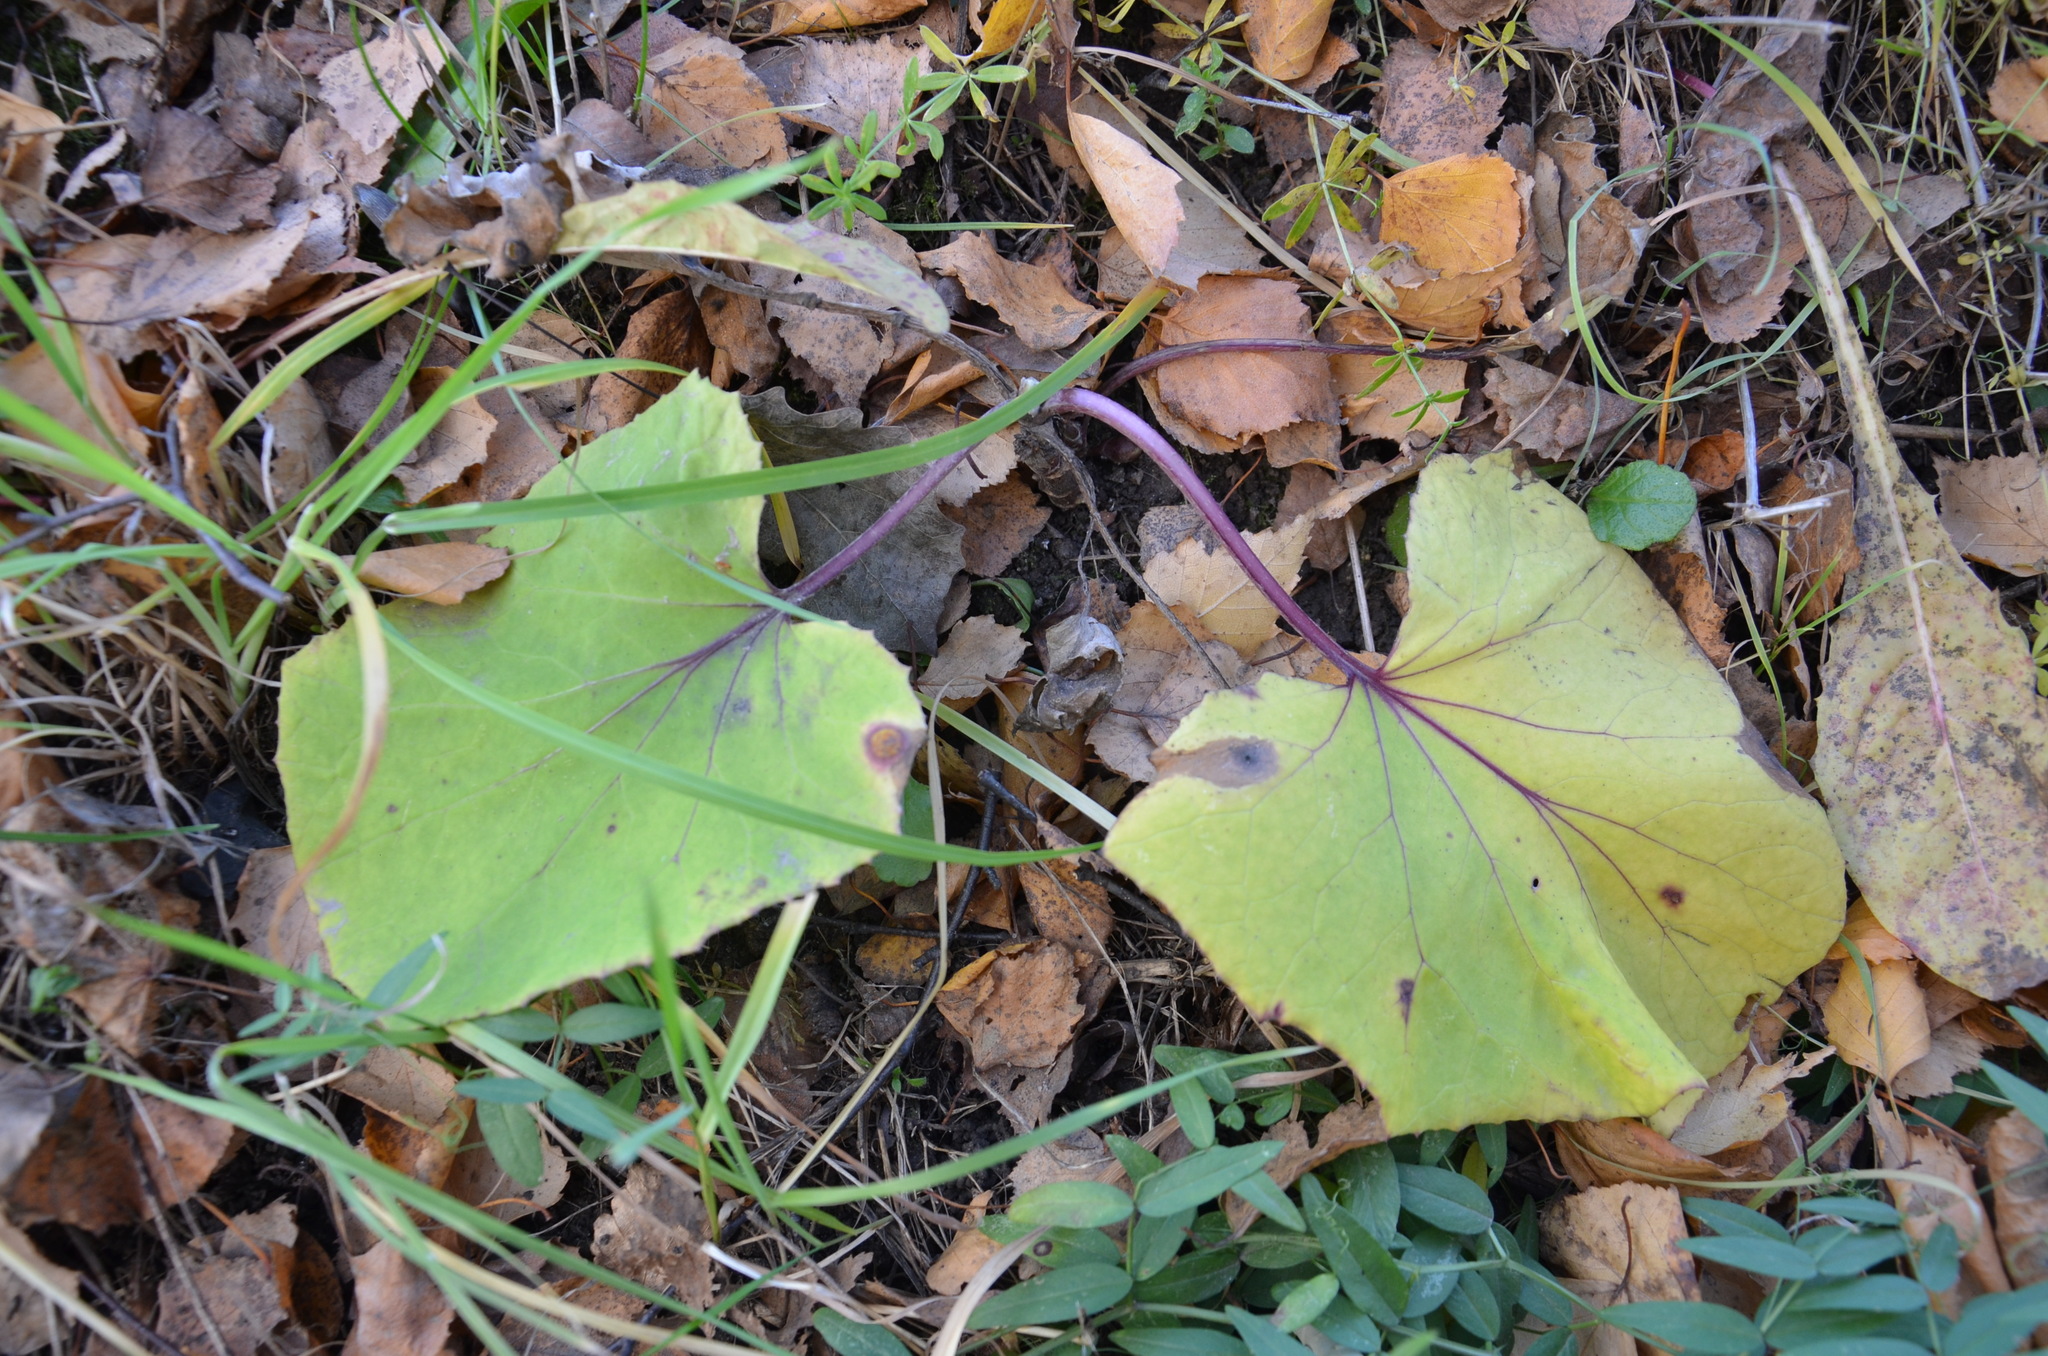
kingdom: Plantae
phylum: Tracheophyta
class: Magnoliopsida
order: Asterales
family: Asteraceae
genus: Tussilago
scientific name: Tussilago farfara
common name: Coltsfoot
